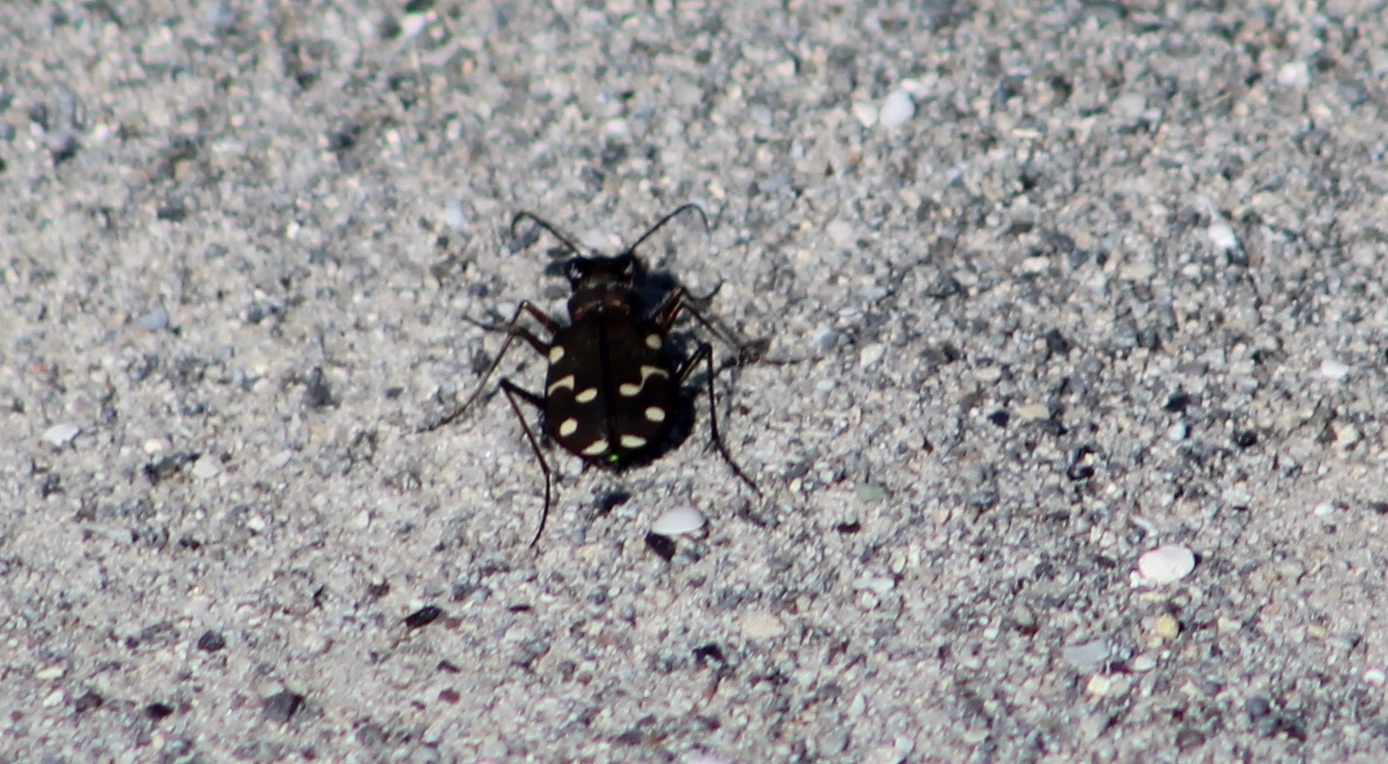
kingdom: Animalia
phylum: Arthropoda
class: Insecta
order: Coleoptera
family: Carabidae
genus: Cicindela
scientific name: Cicindela oregona
